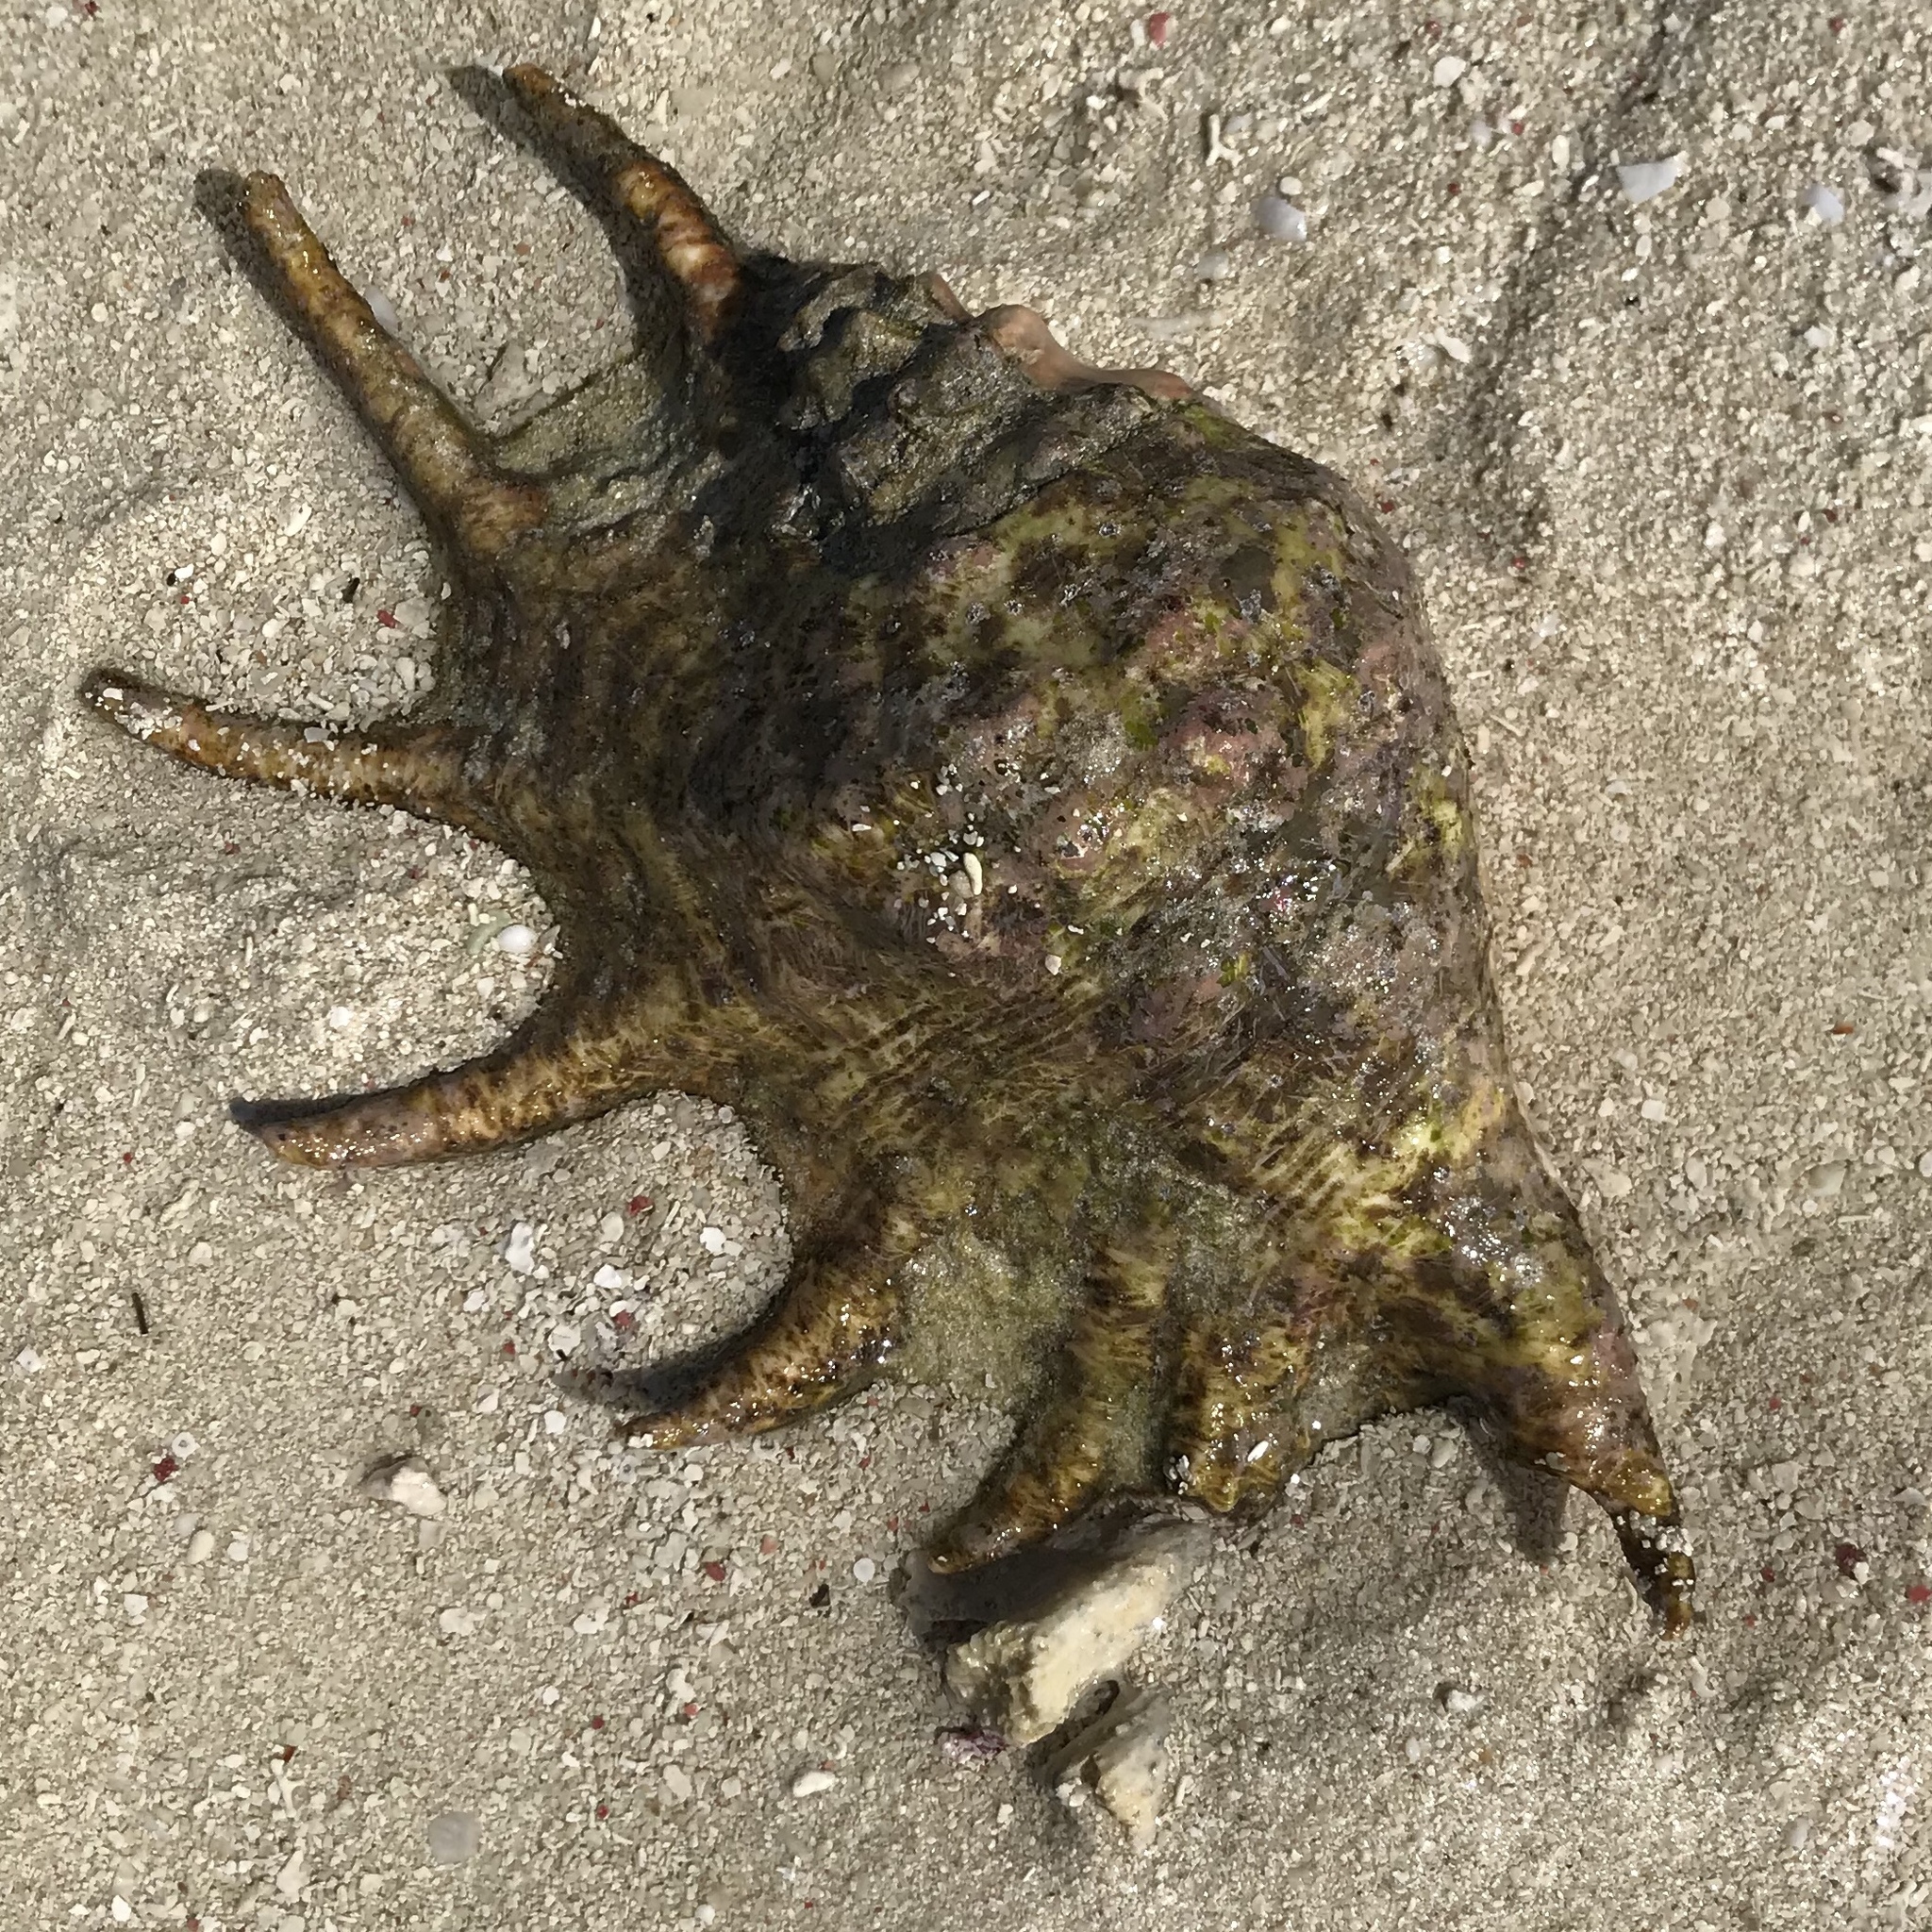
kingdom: Animalia
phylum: Mollusca
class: Gastropoda
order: Littorinimorpha
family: Strombidae
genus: Lambis
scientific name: Lambis truncata
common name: Giant spider conch
